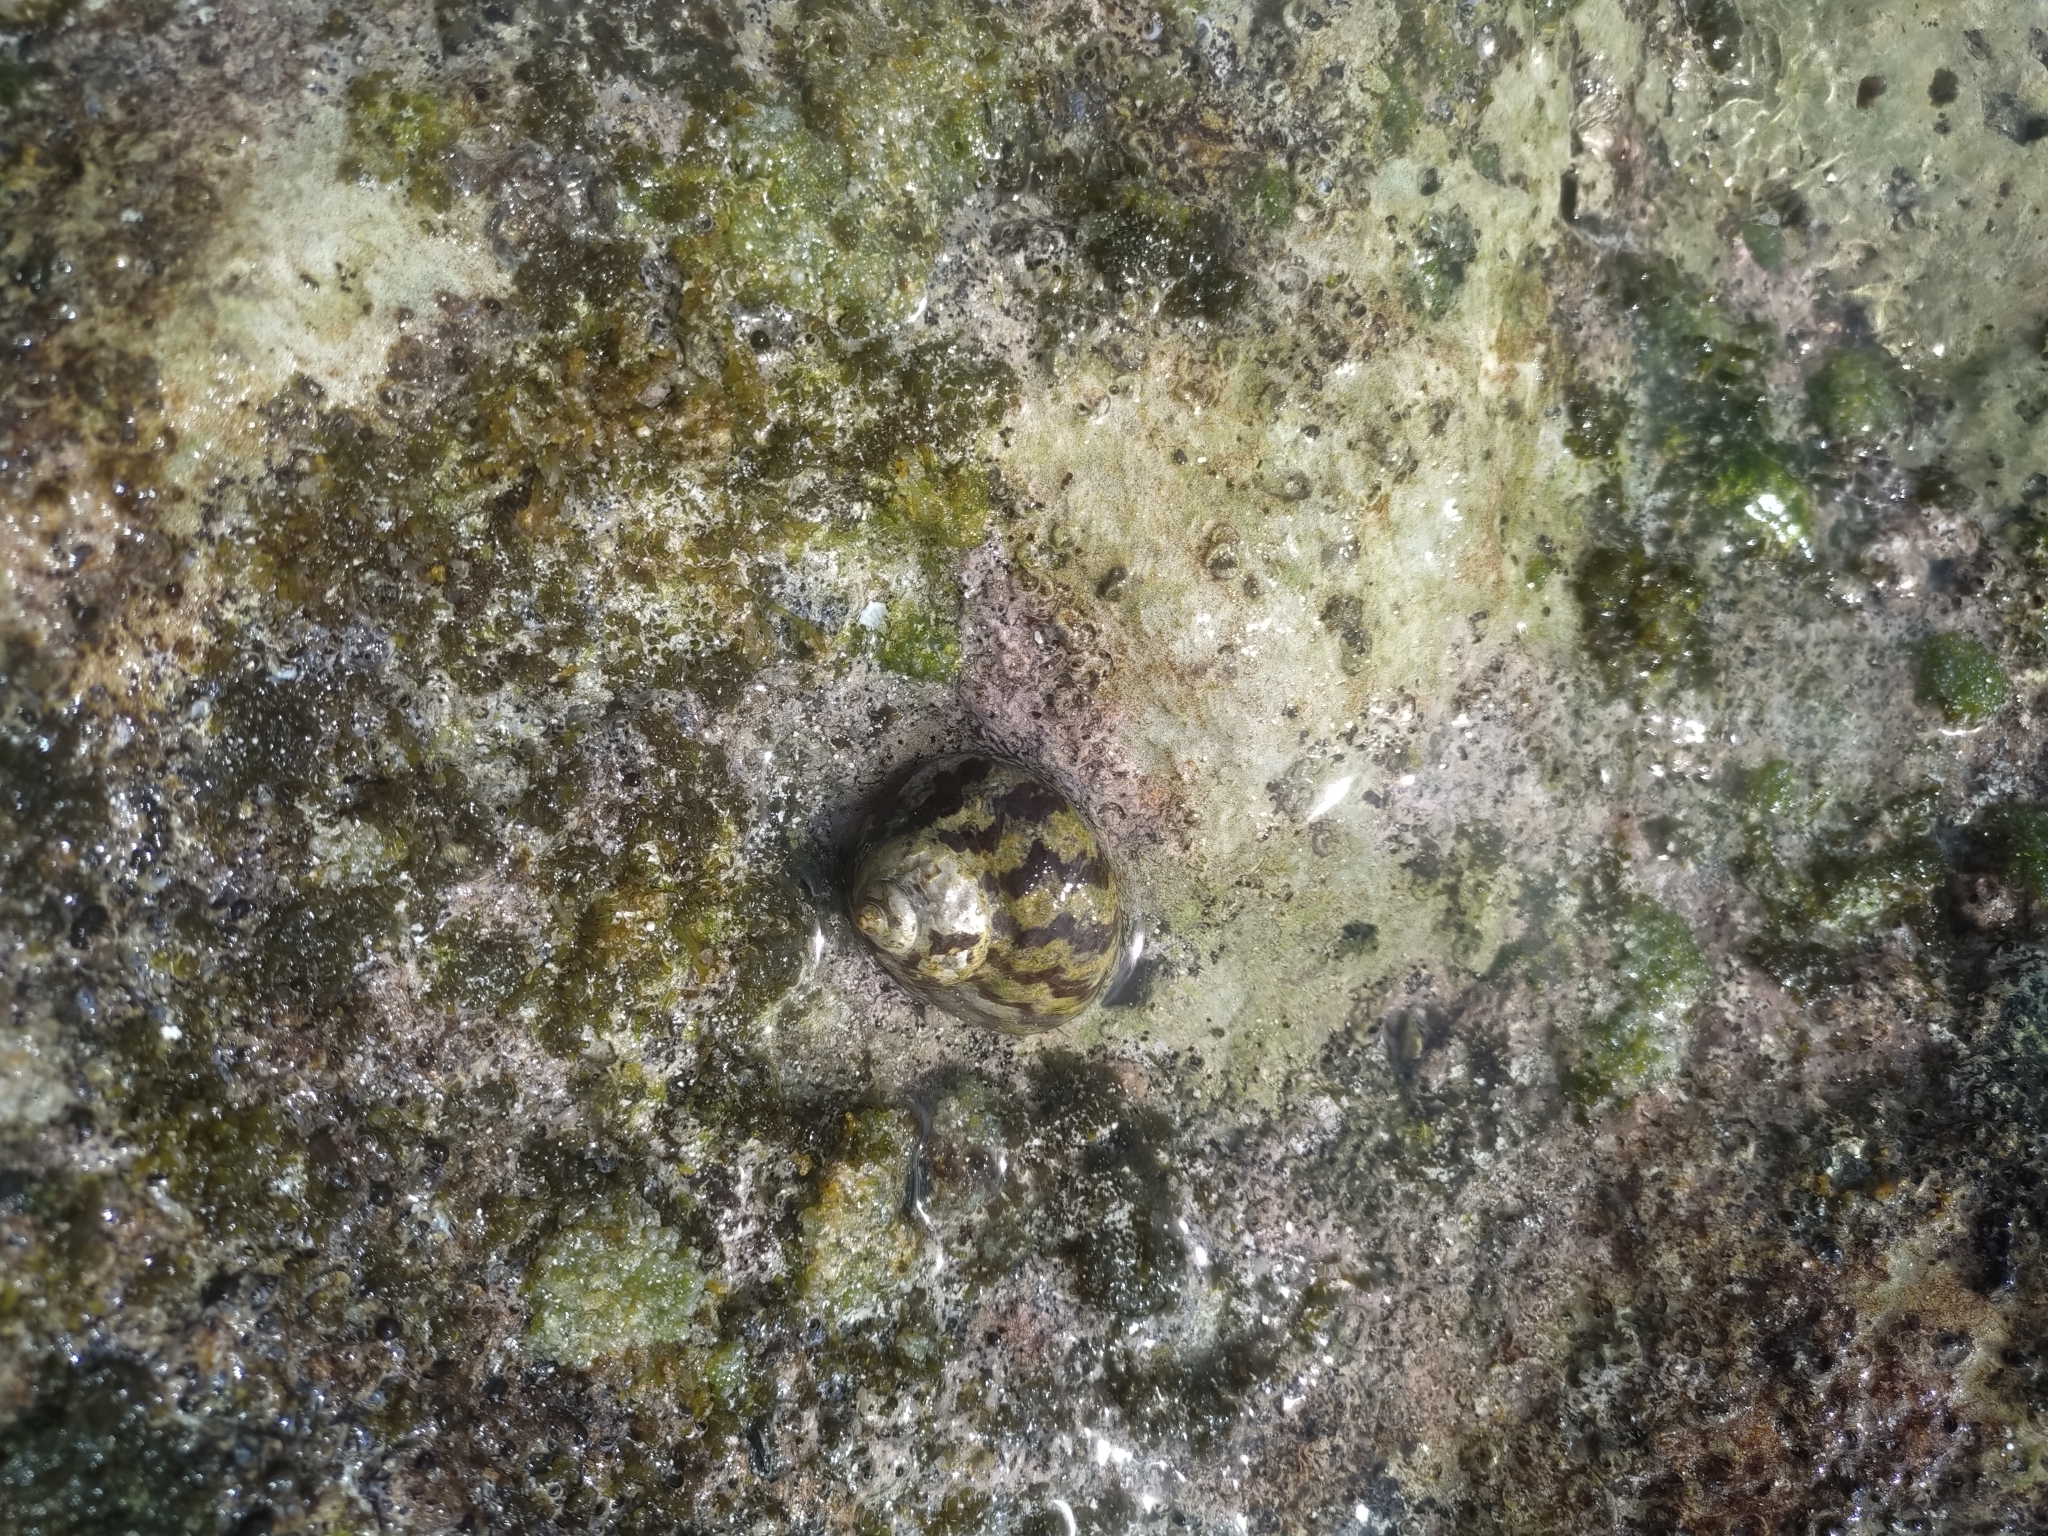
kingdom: Animalia
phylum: Mollusca
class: Gastropoda
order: Trochida
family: Tegulidae
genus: Cittarium
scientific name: Cittarium pica
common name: West indian topshell
